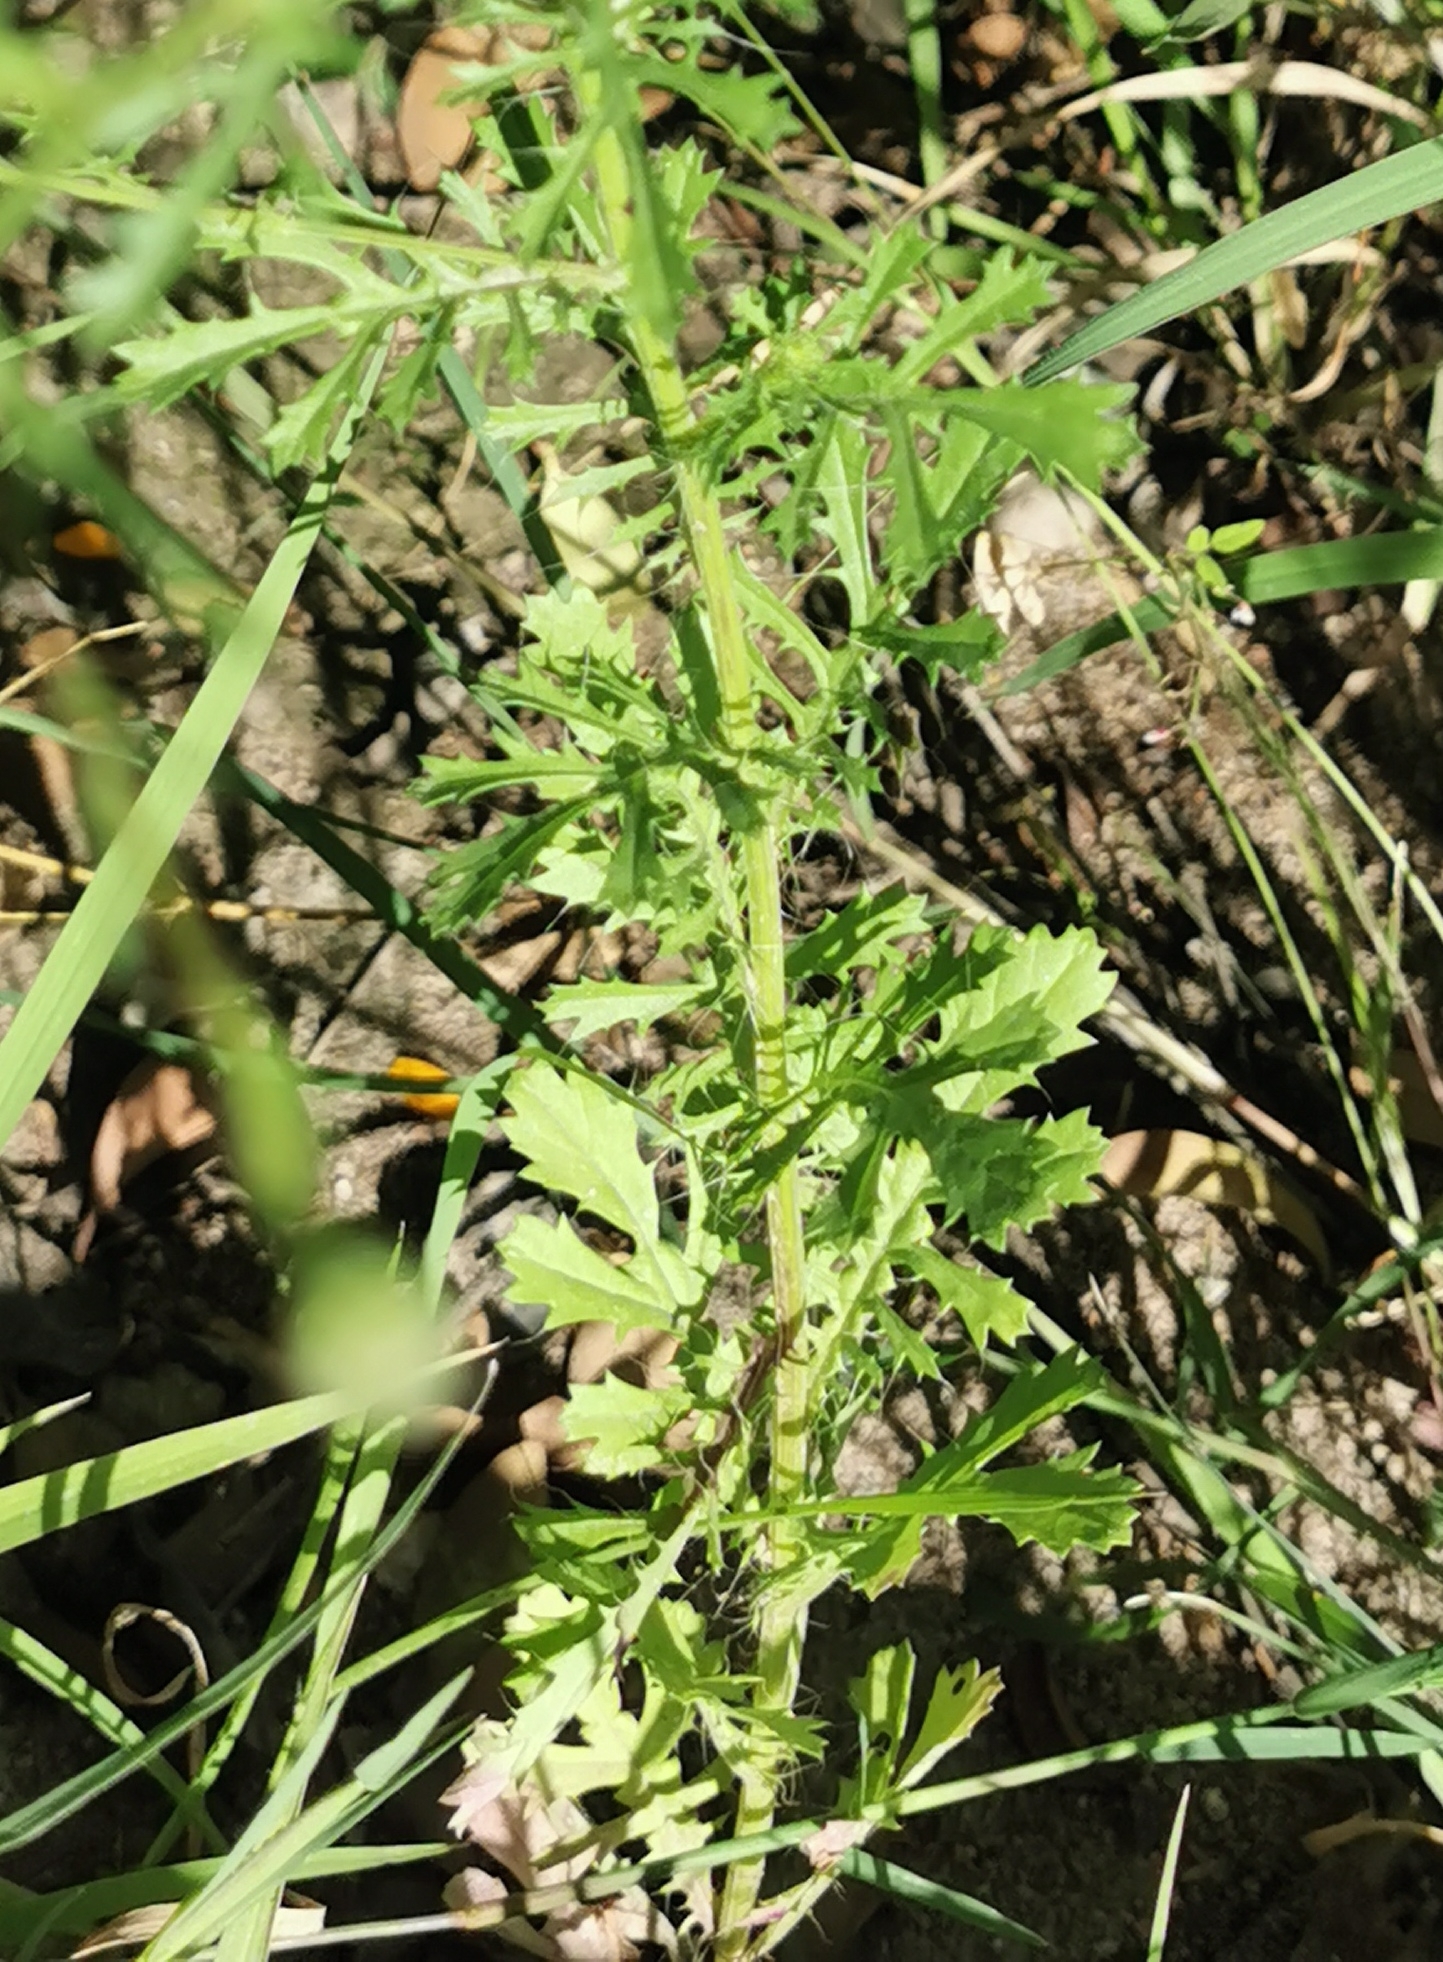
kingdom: Plantae
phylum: Tracheophyta
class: Magnoliopsida
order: Asterales
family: Asteraceae
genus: Adenophyllum
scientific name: Adenophyllum cancellatum
